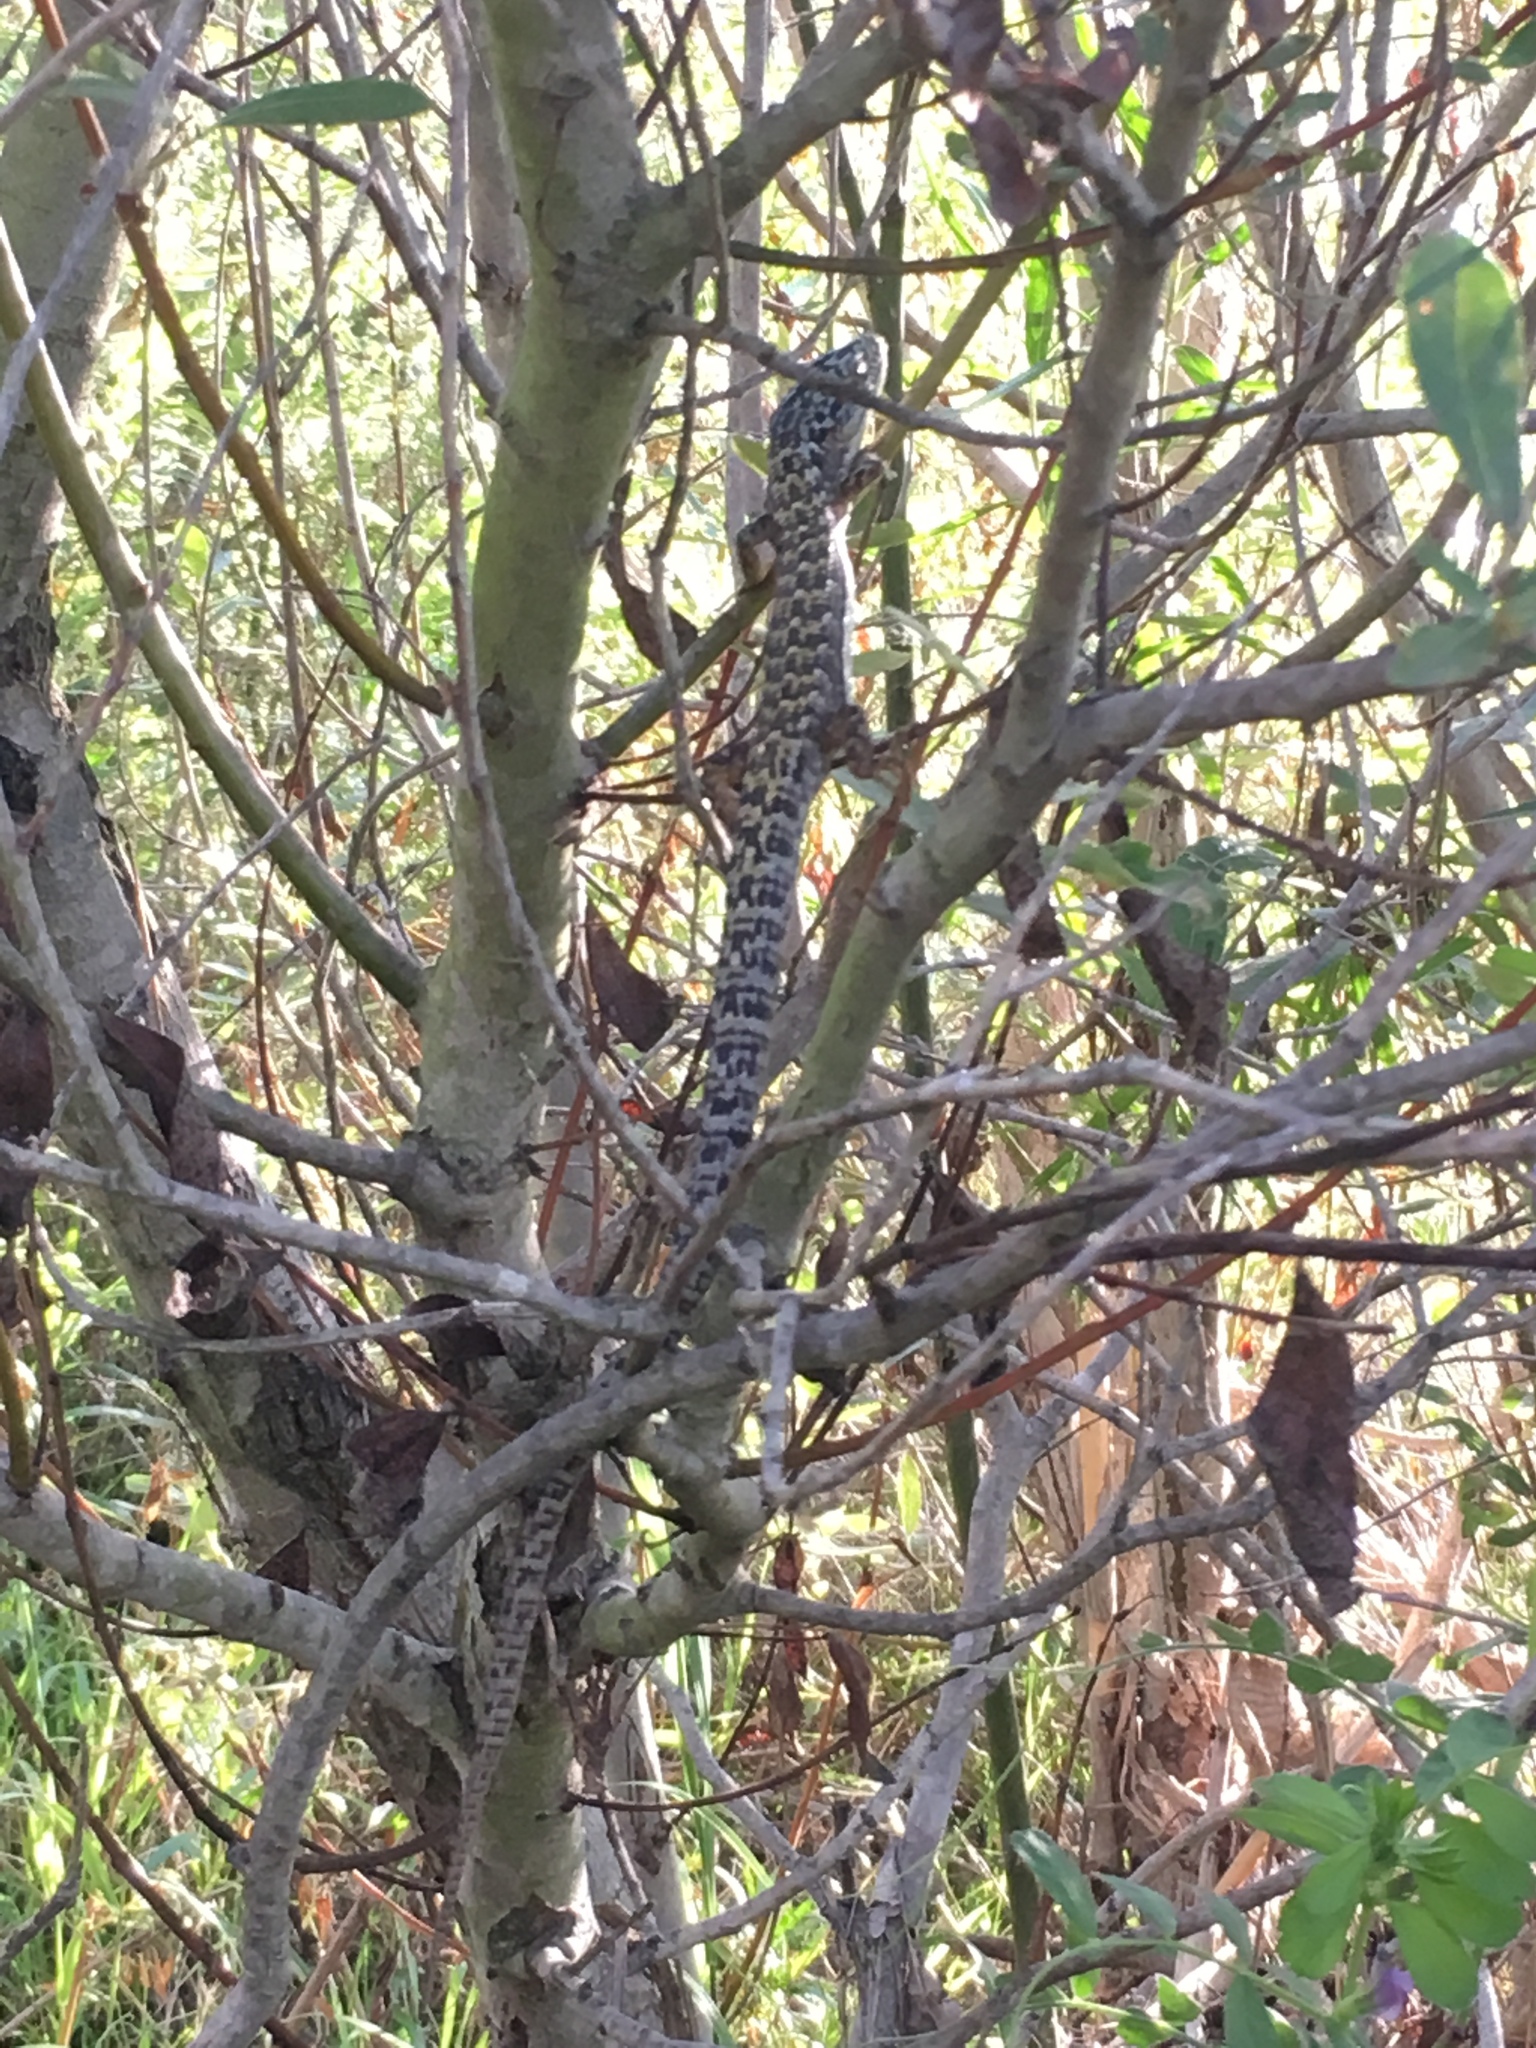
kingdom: Animalia
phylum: Chordata
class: Squamata
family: Anguidae
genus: Elgaria
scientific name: Elgaria multicarinata
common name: Southern alligator lizard
